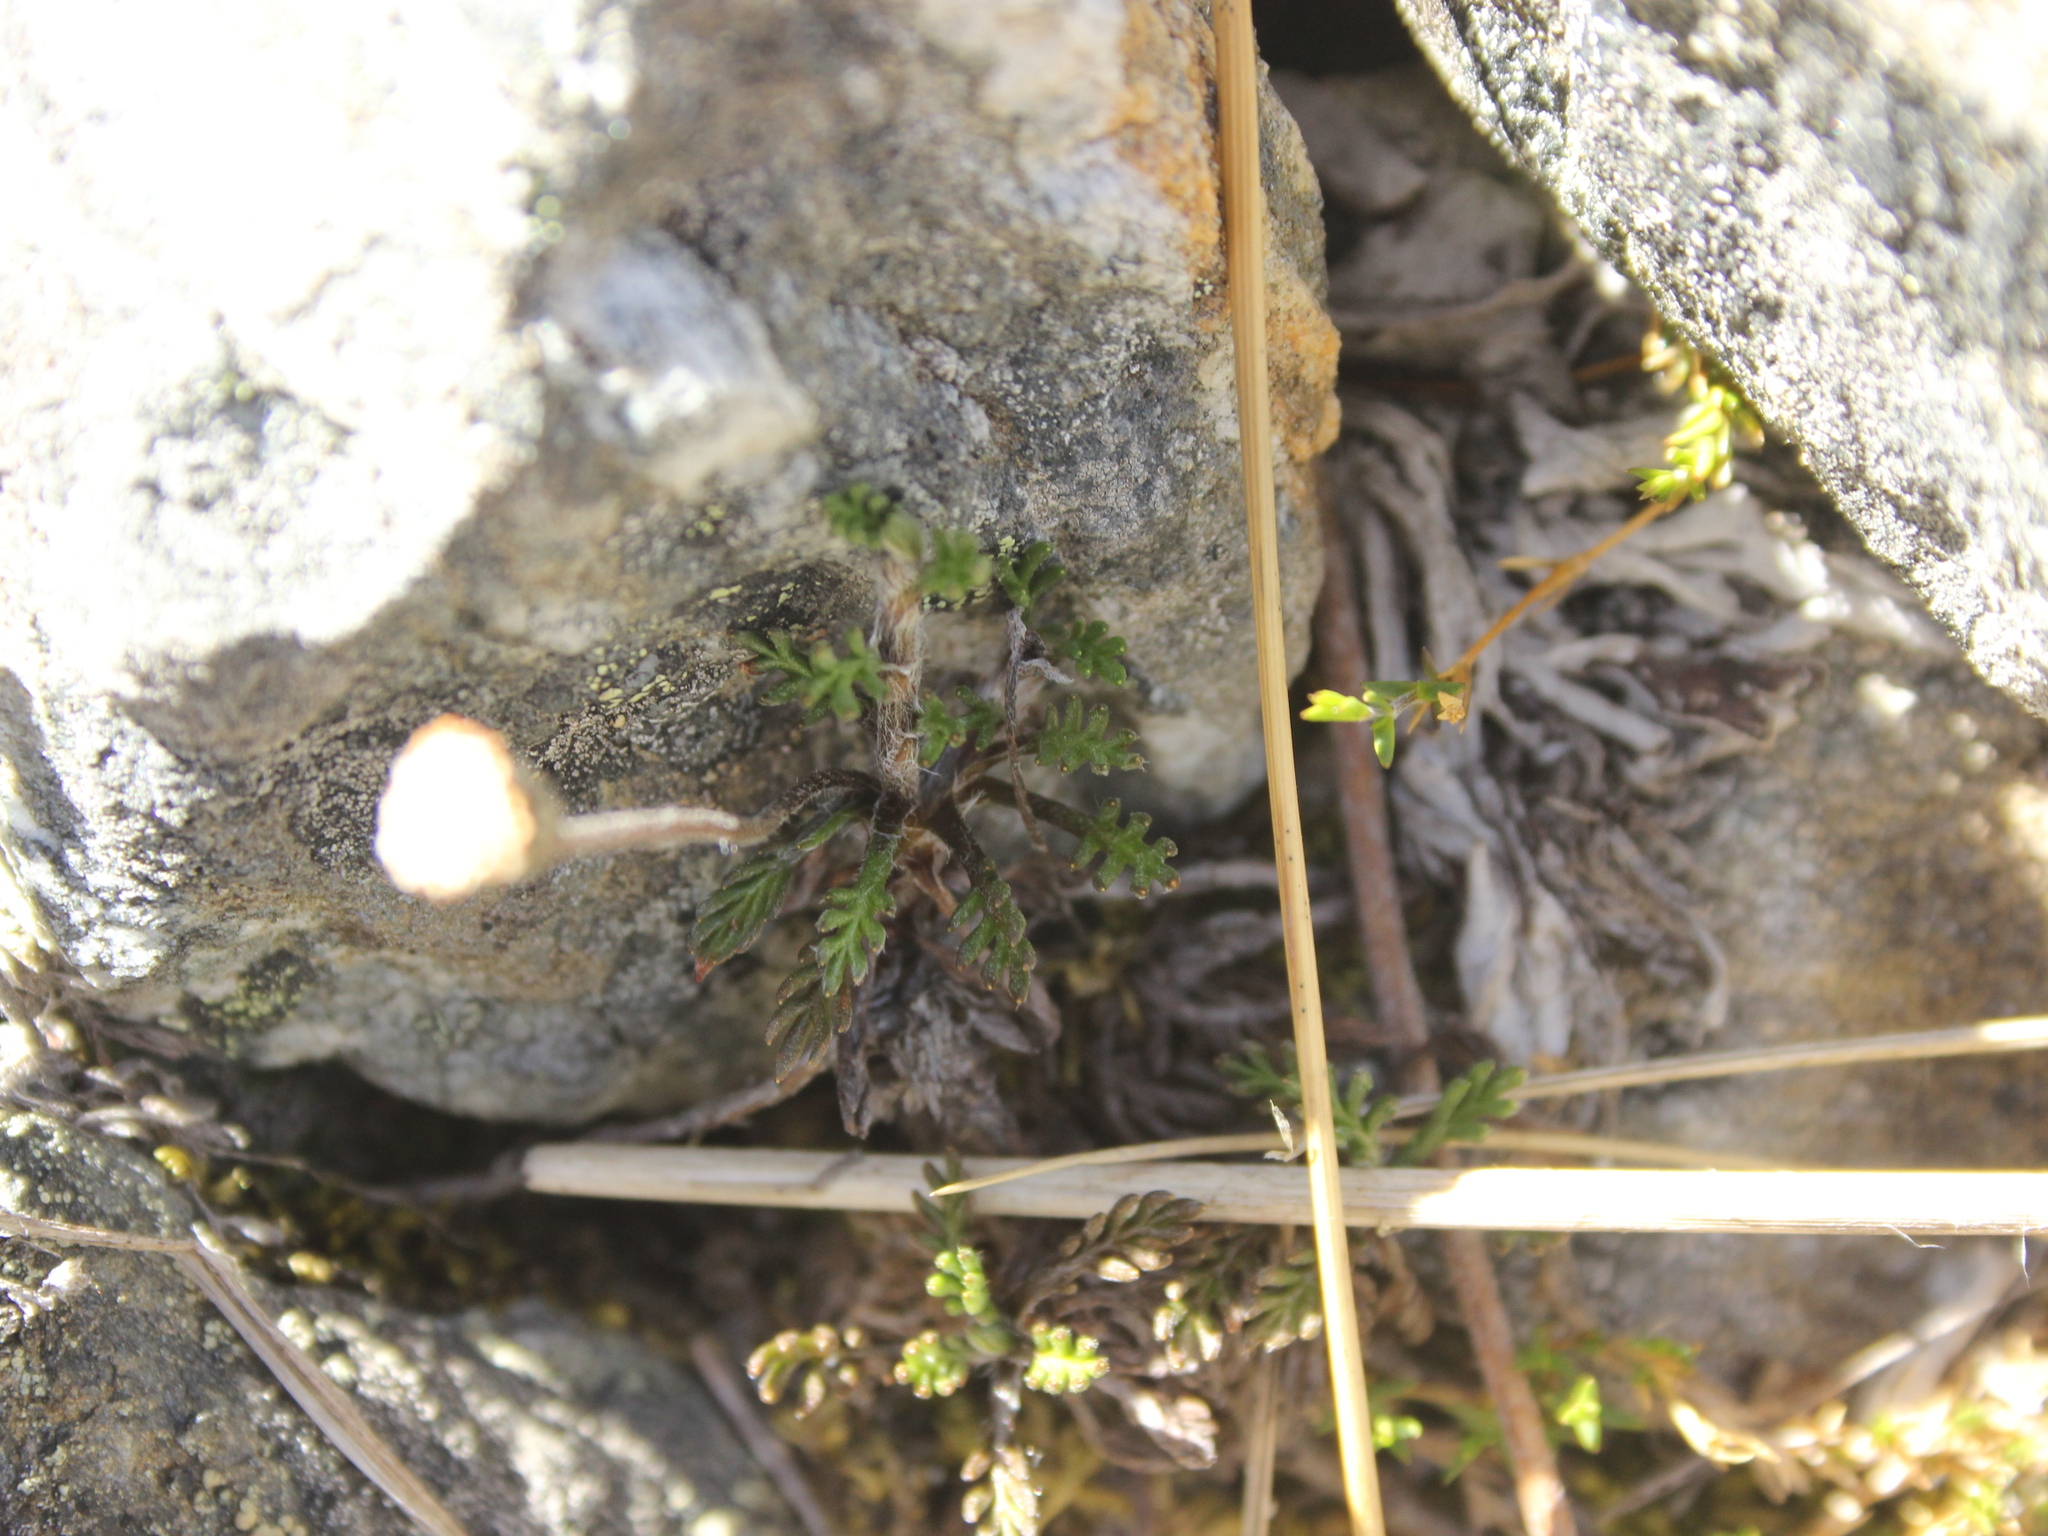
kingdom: Plantae
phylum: Tracheophyta
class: Magnoliopsida
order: Asterales
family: Asteraceae
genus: Leptinella
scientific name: Leptinella pectinata
